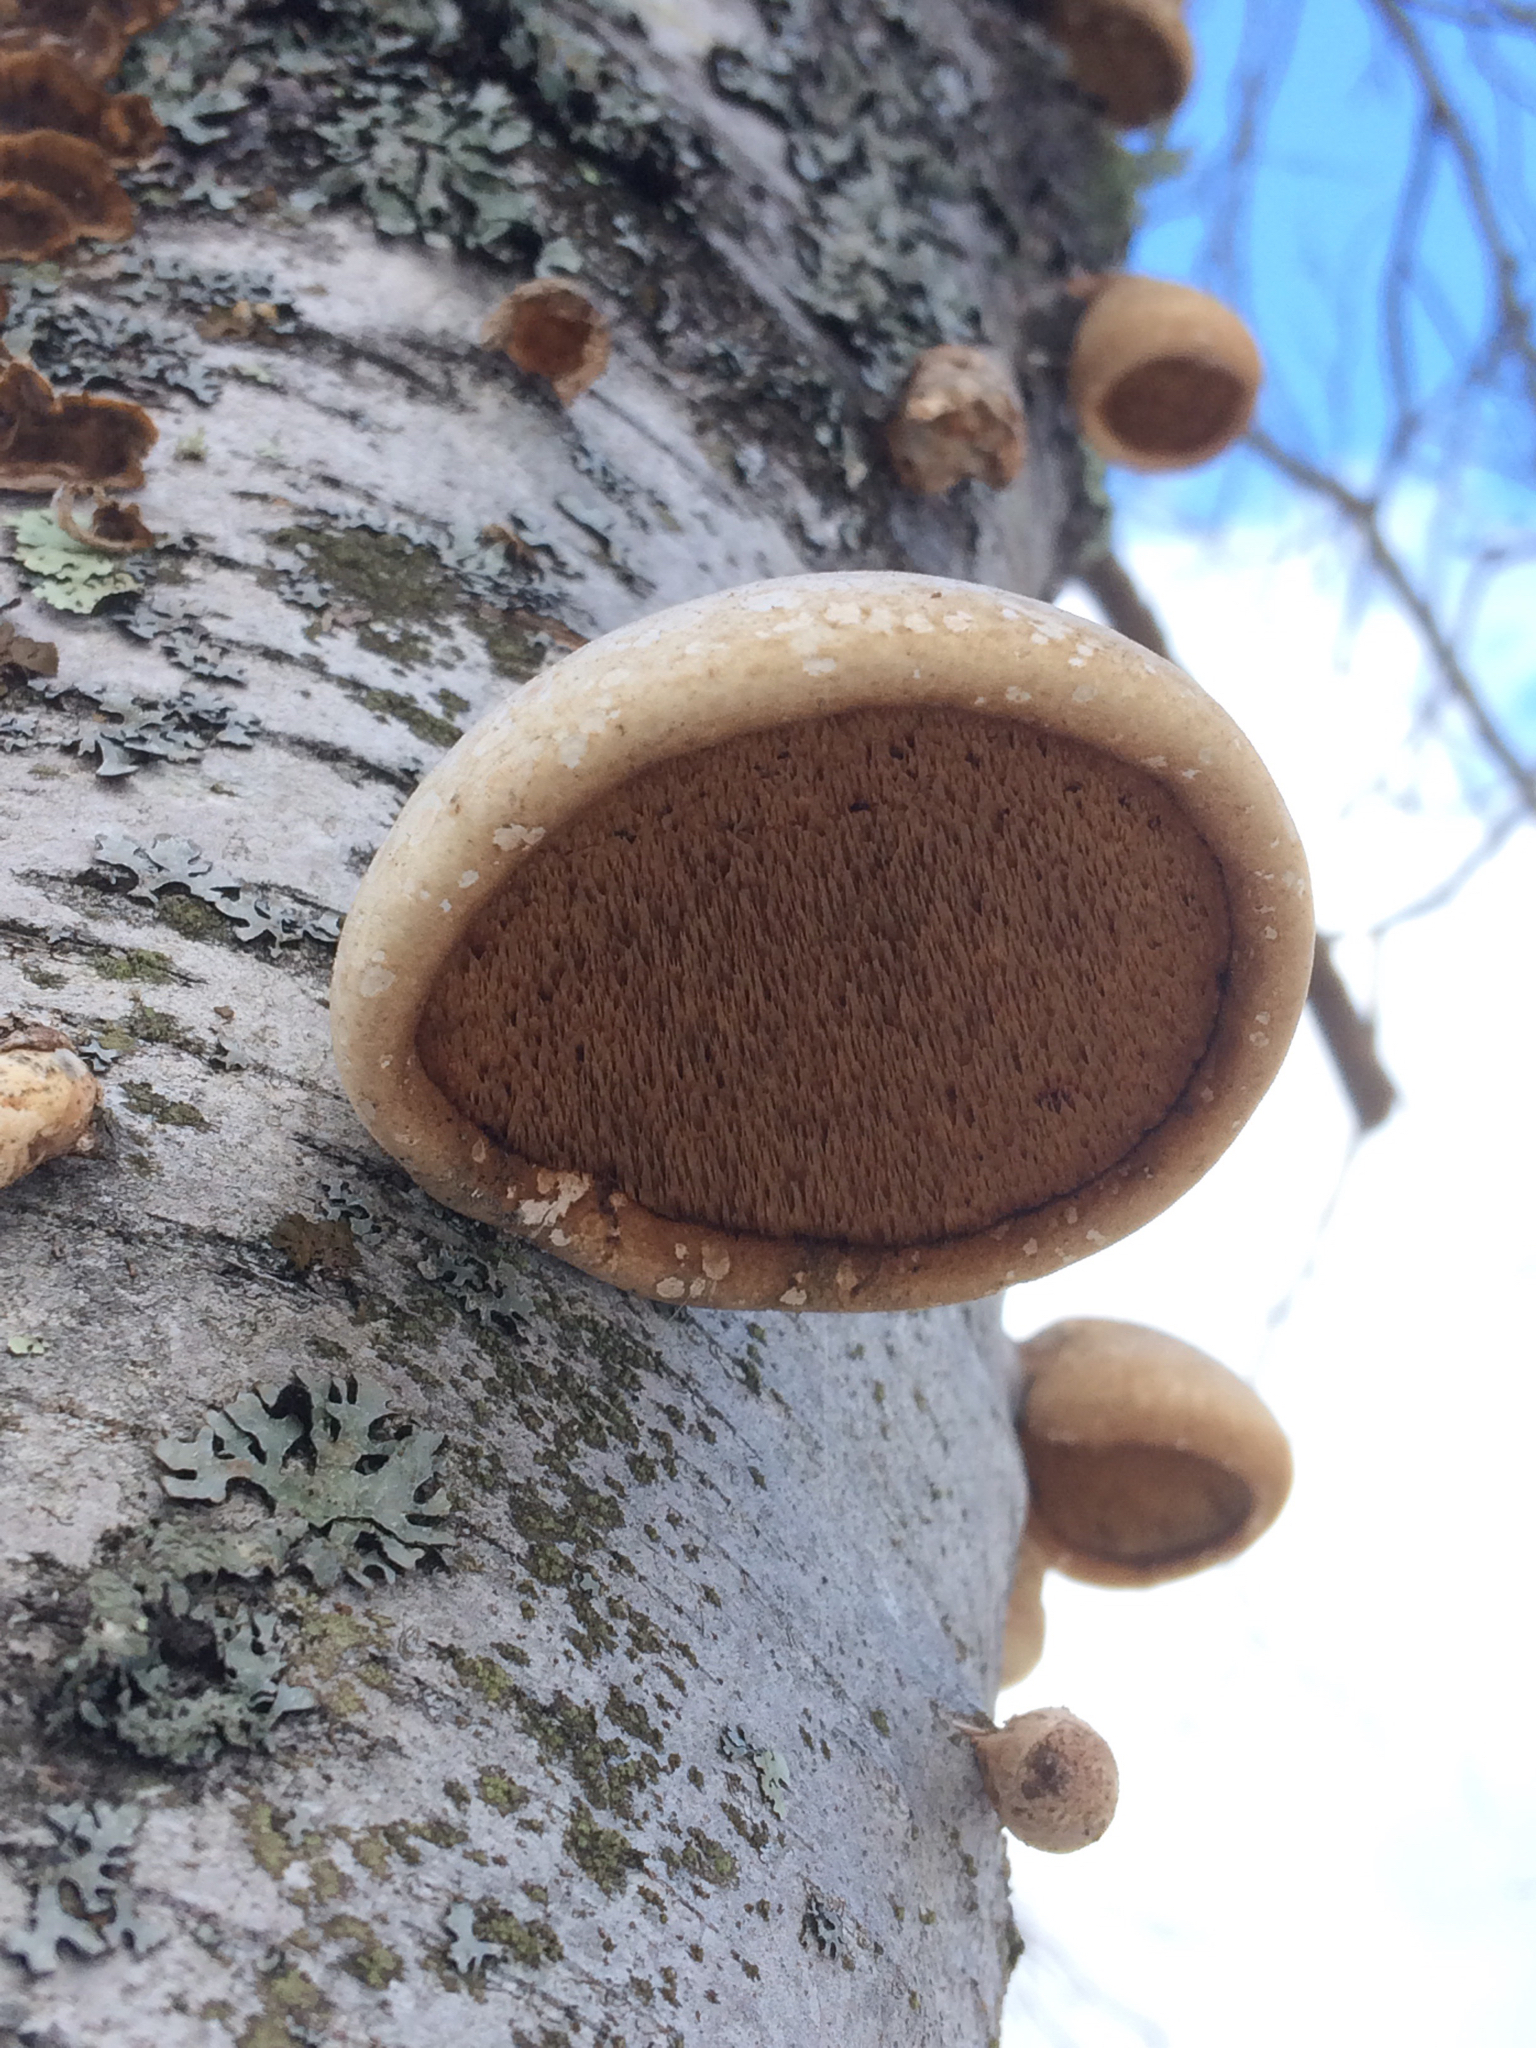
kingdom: Fungi
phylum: Basidiomycota
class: Agaricomycetes
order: Polyporales
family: Fomitopsidaceae
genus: Fomitopsis
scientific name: Fomitopsis betulina
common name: Birch polypore
